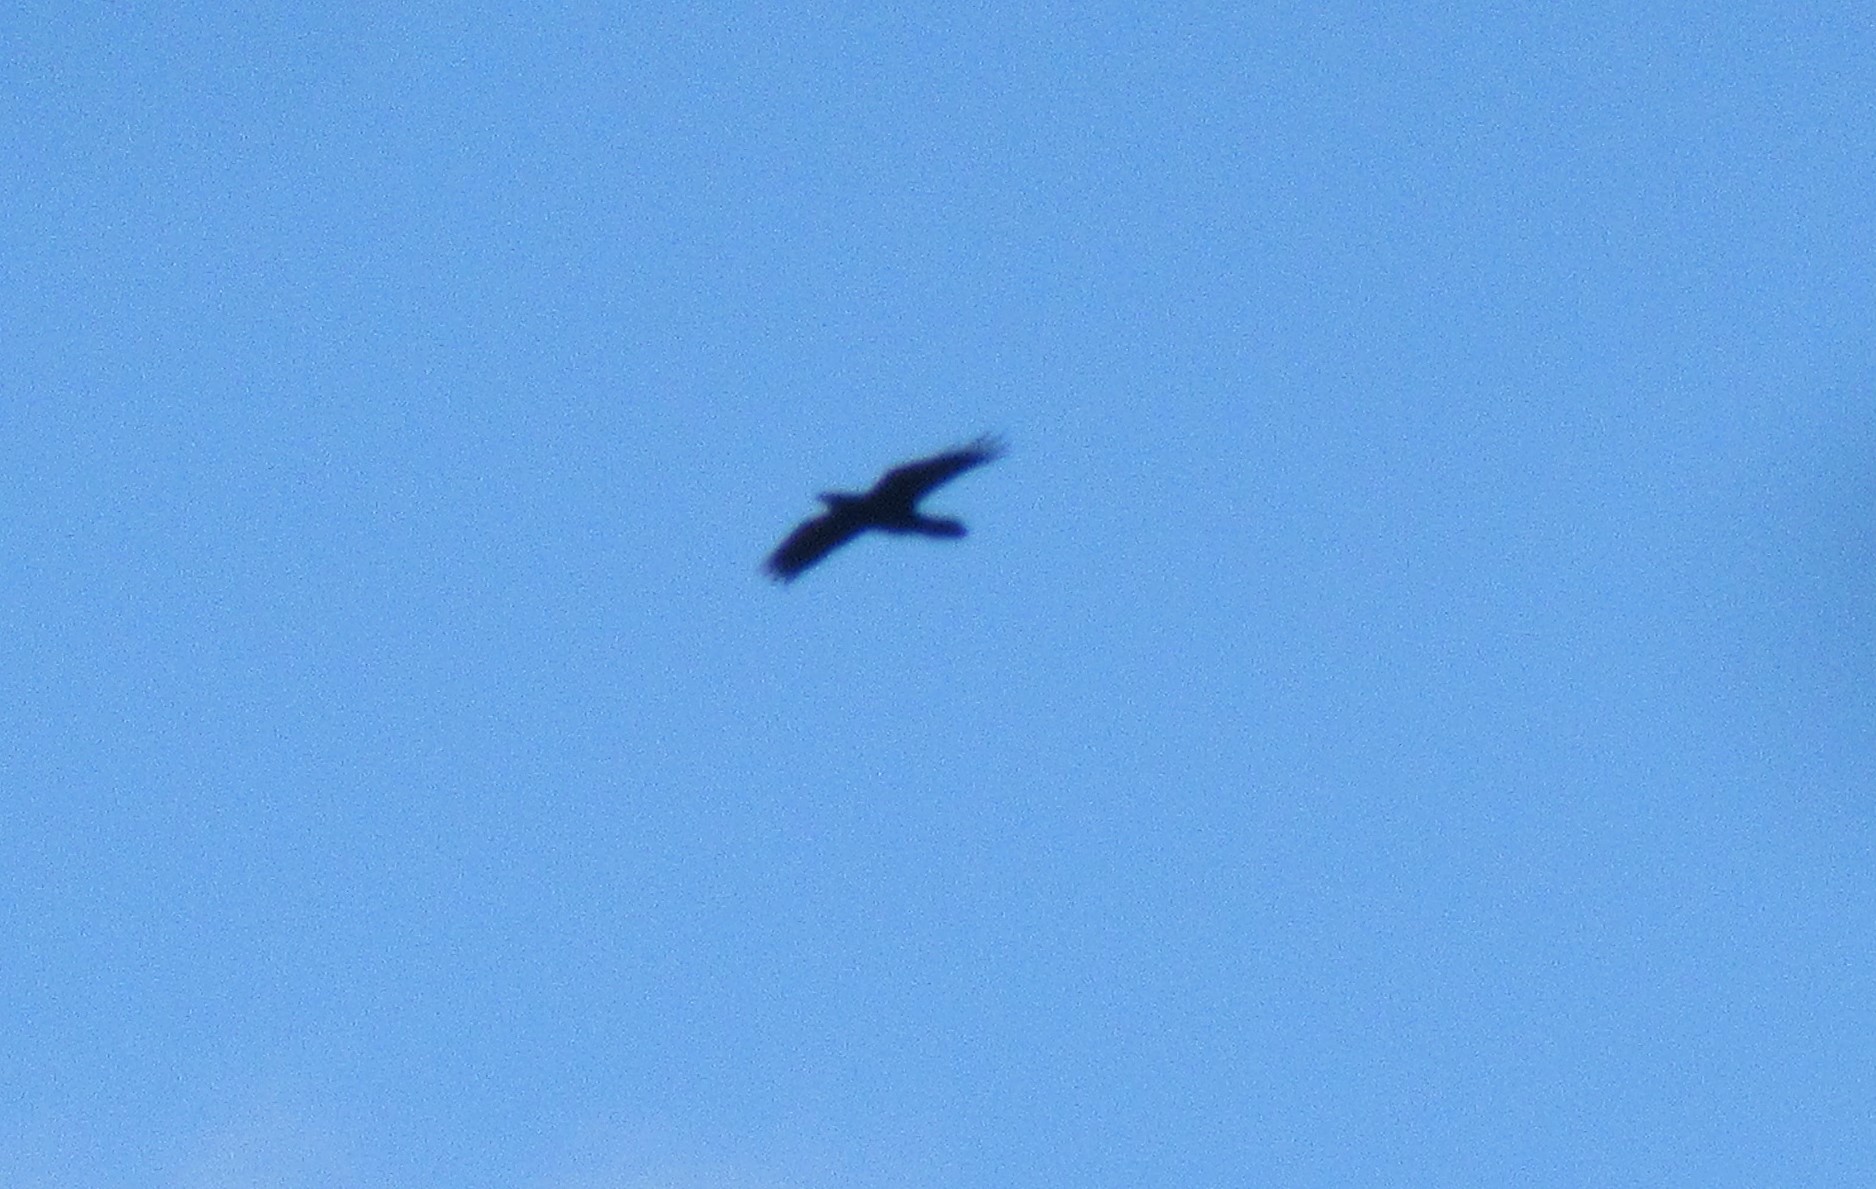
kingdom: Animalia
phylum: Chordata
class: Aves
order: Passeriformes
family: Corvidae
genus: Corvus
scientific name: Corvus corax
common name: Common raven
